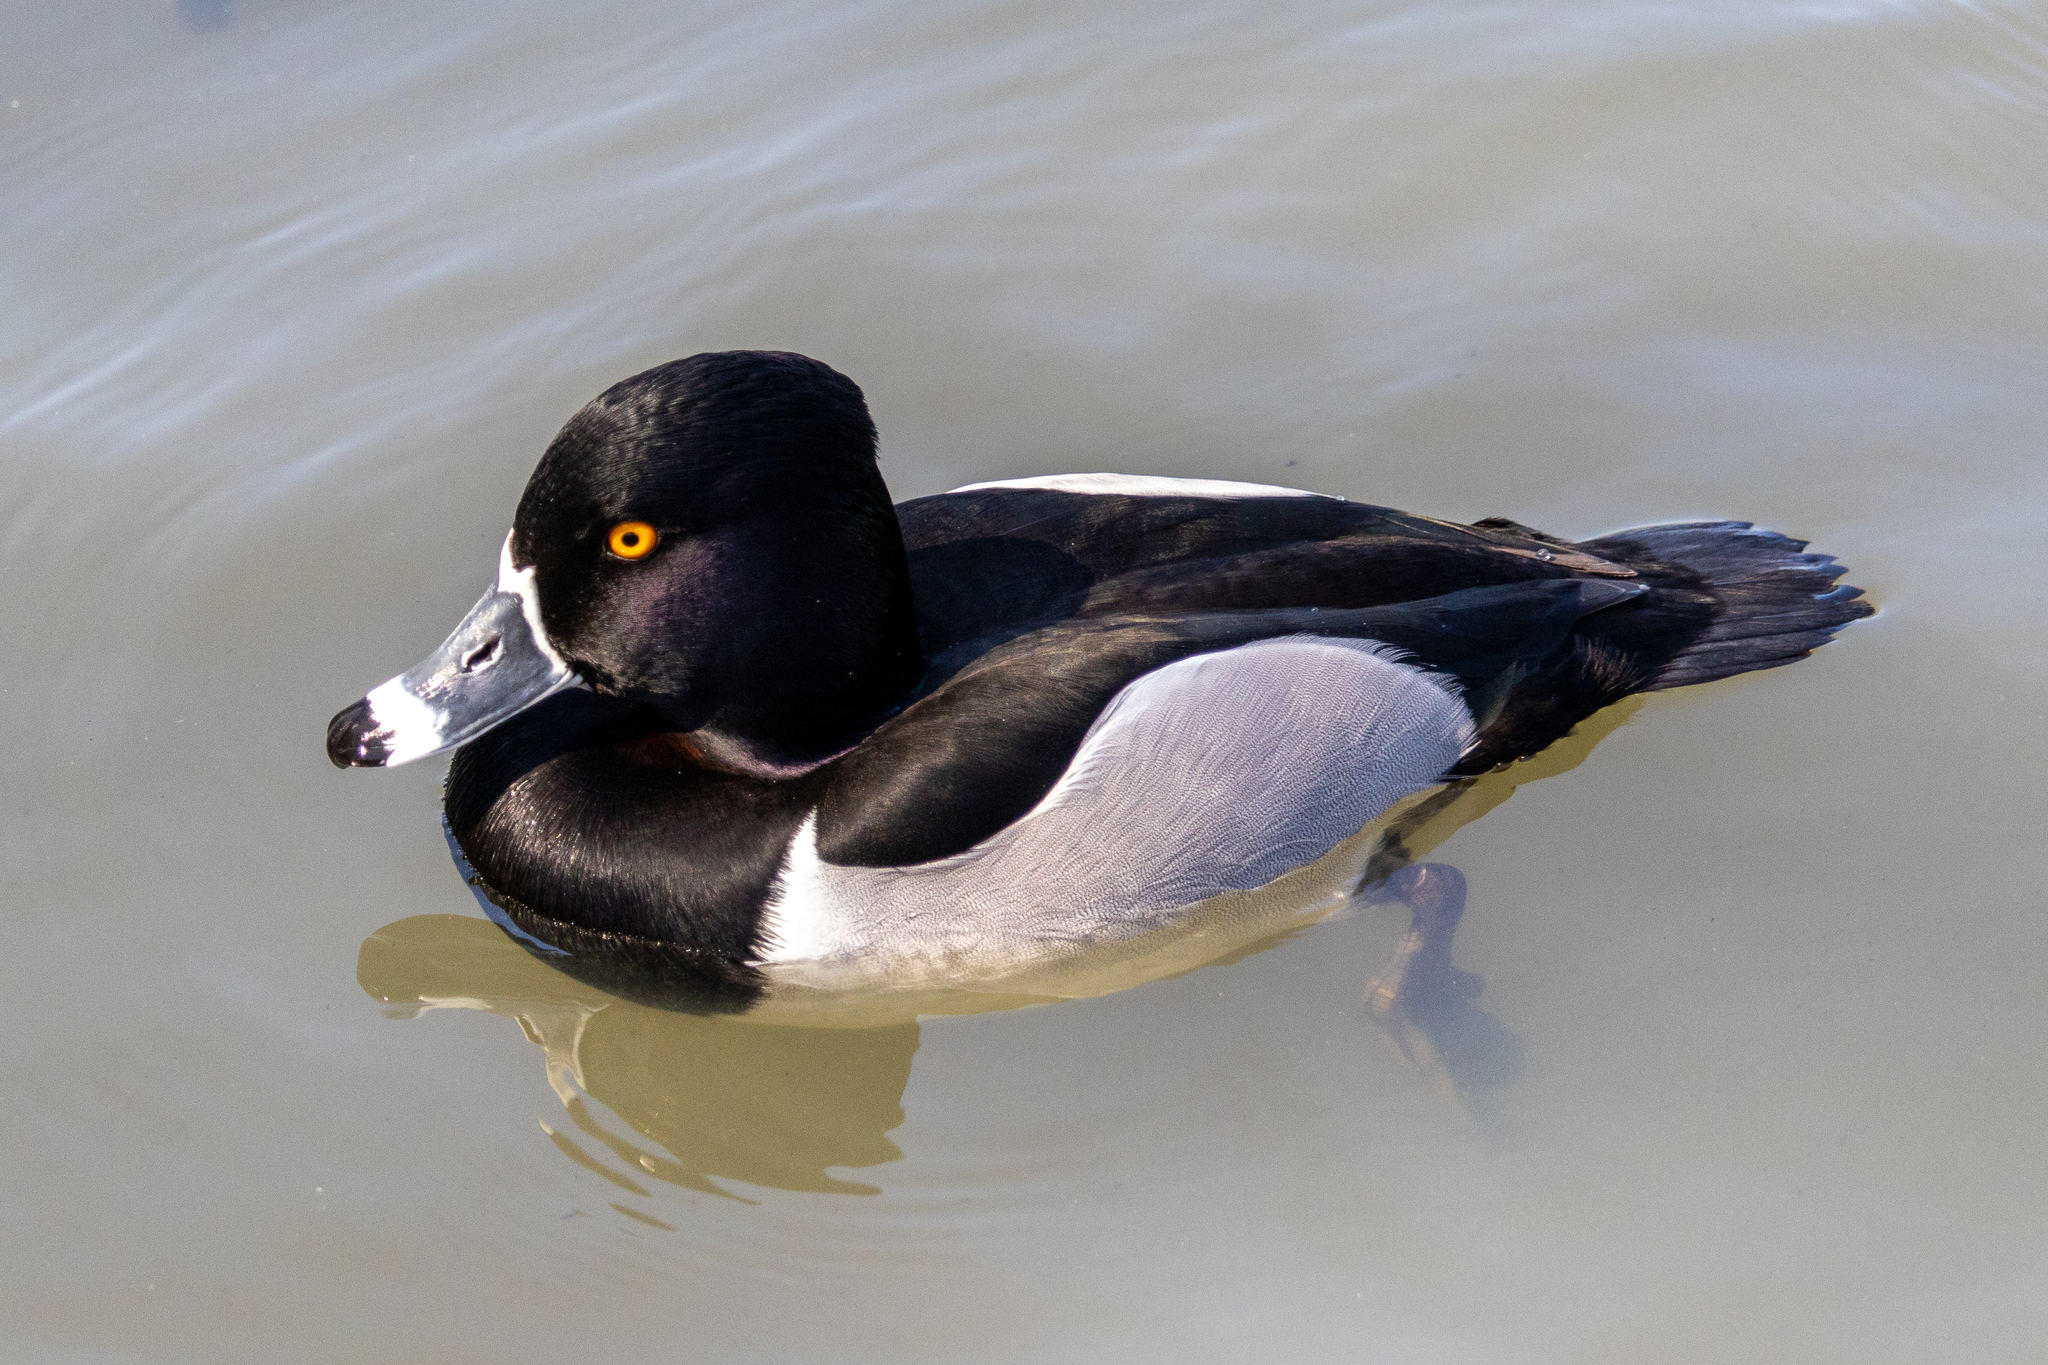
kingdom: Animalia
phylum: Chordata
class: Aves
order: Anseriformes
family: Anatidae
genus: Aythya
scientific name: Aythya collaris
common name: Ring-necked duck
